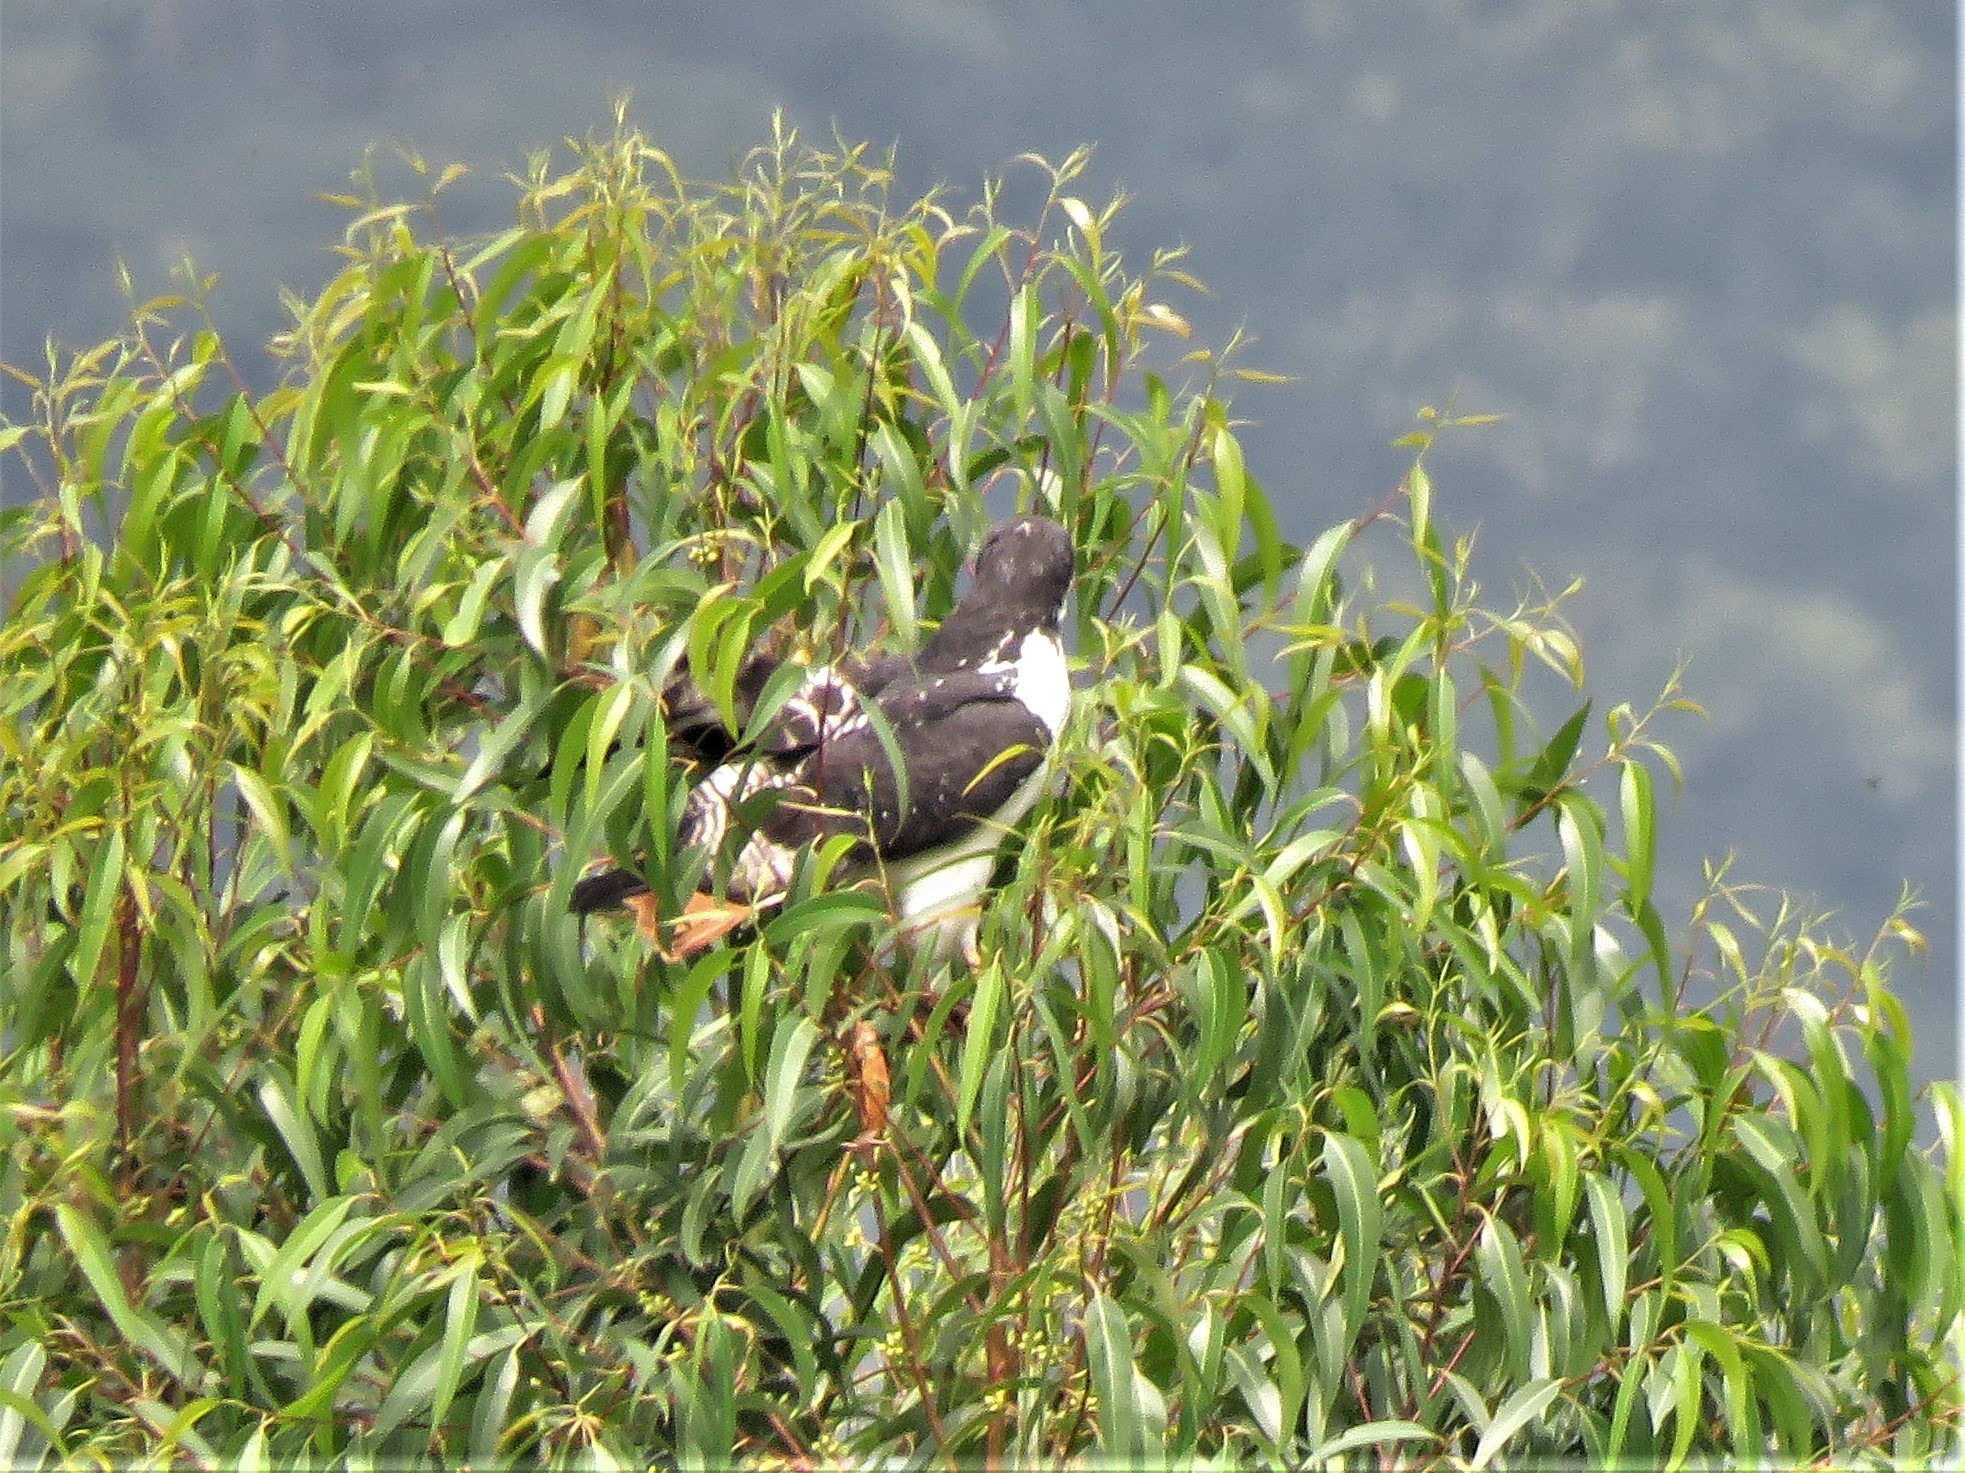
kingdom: Animalia
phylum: Chordata
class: Aves
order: Accipitriformes
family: Accipitridae
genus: Buteo
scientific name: Buteo augur
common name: Augur buzzard
